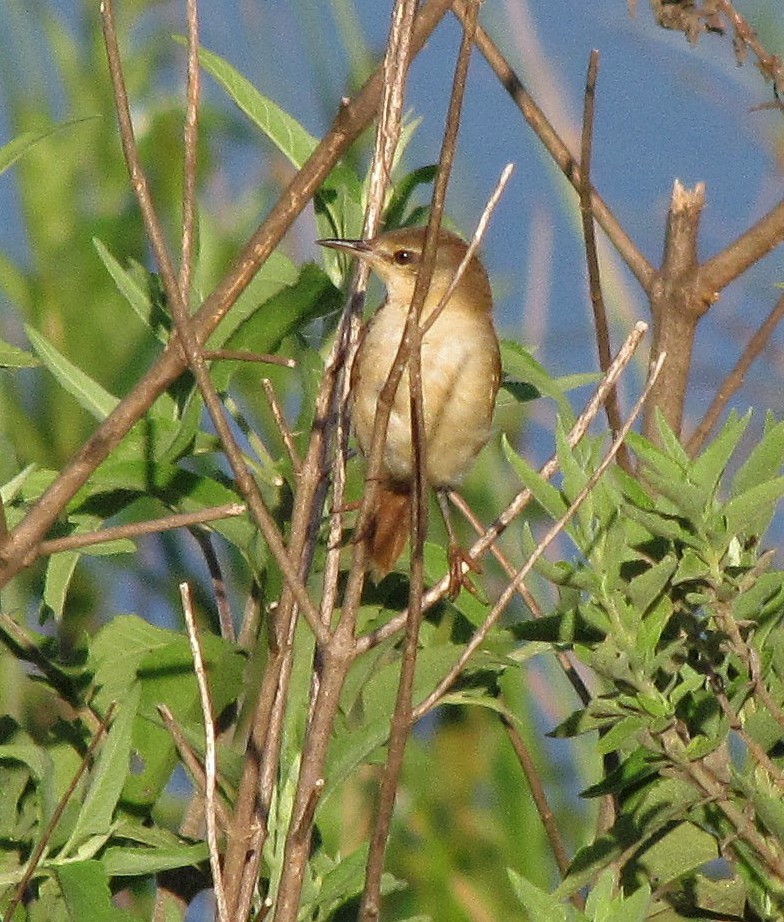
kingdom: Animalia
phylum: Chordata
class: Aves
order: Passeriformes
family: Furnariidae
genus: Certhiaxis
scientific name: Certhiaxis cinnamomeus
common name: Yellow-chinned spinetail
